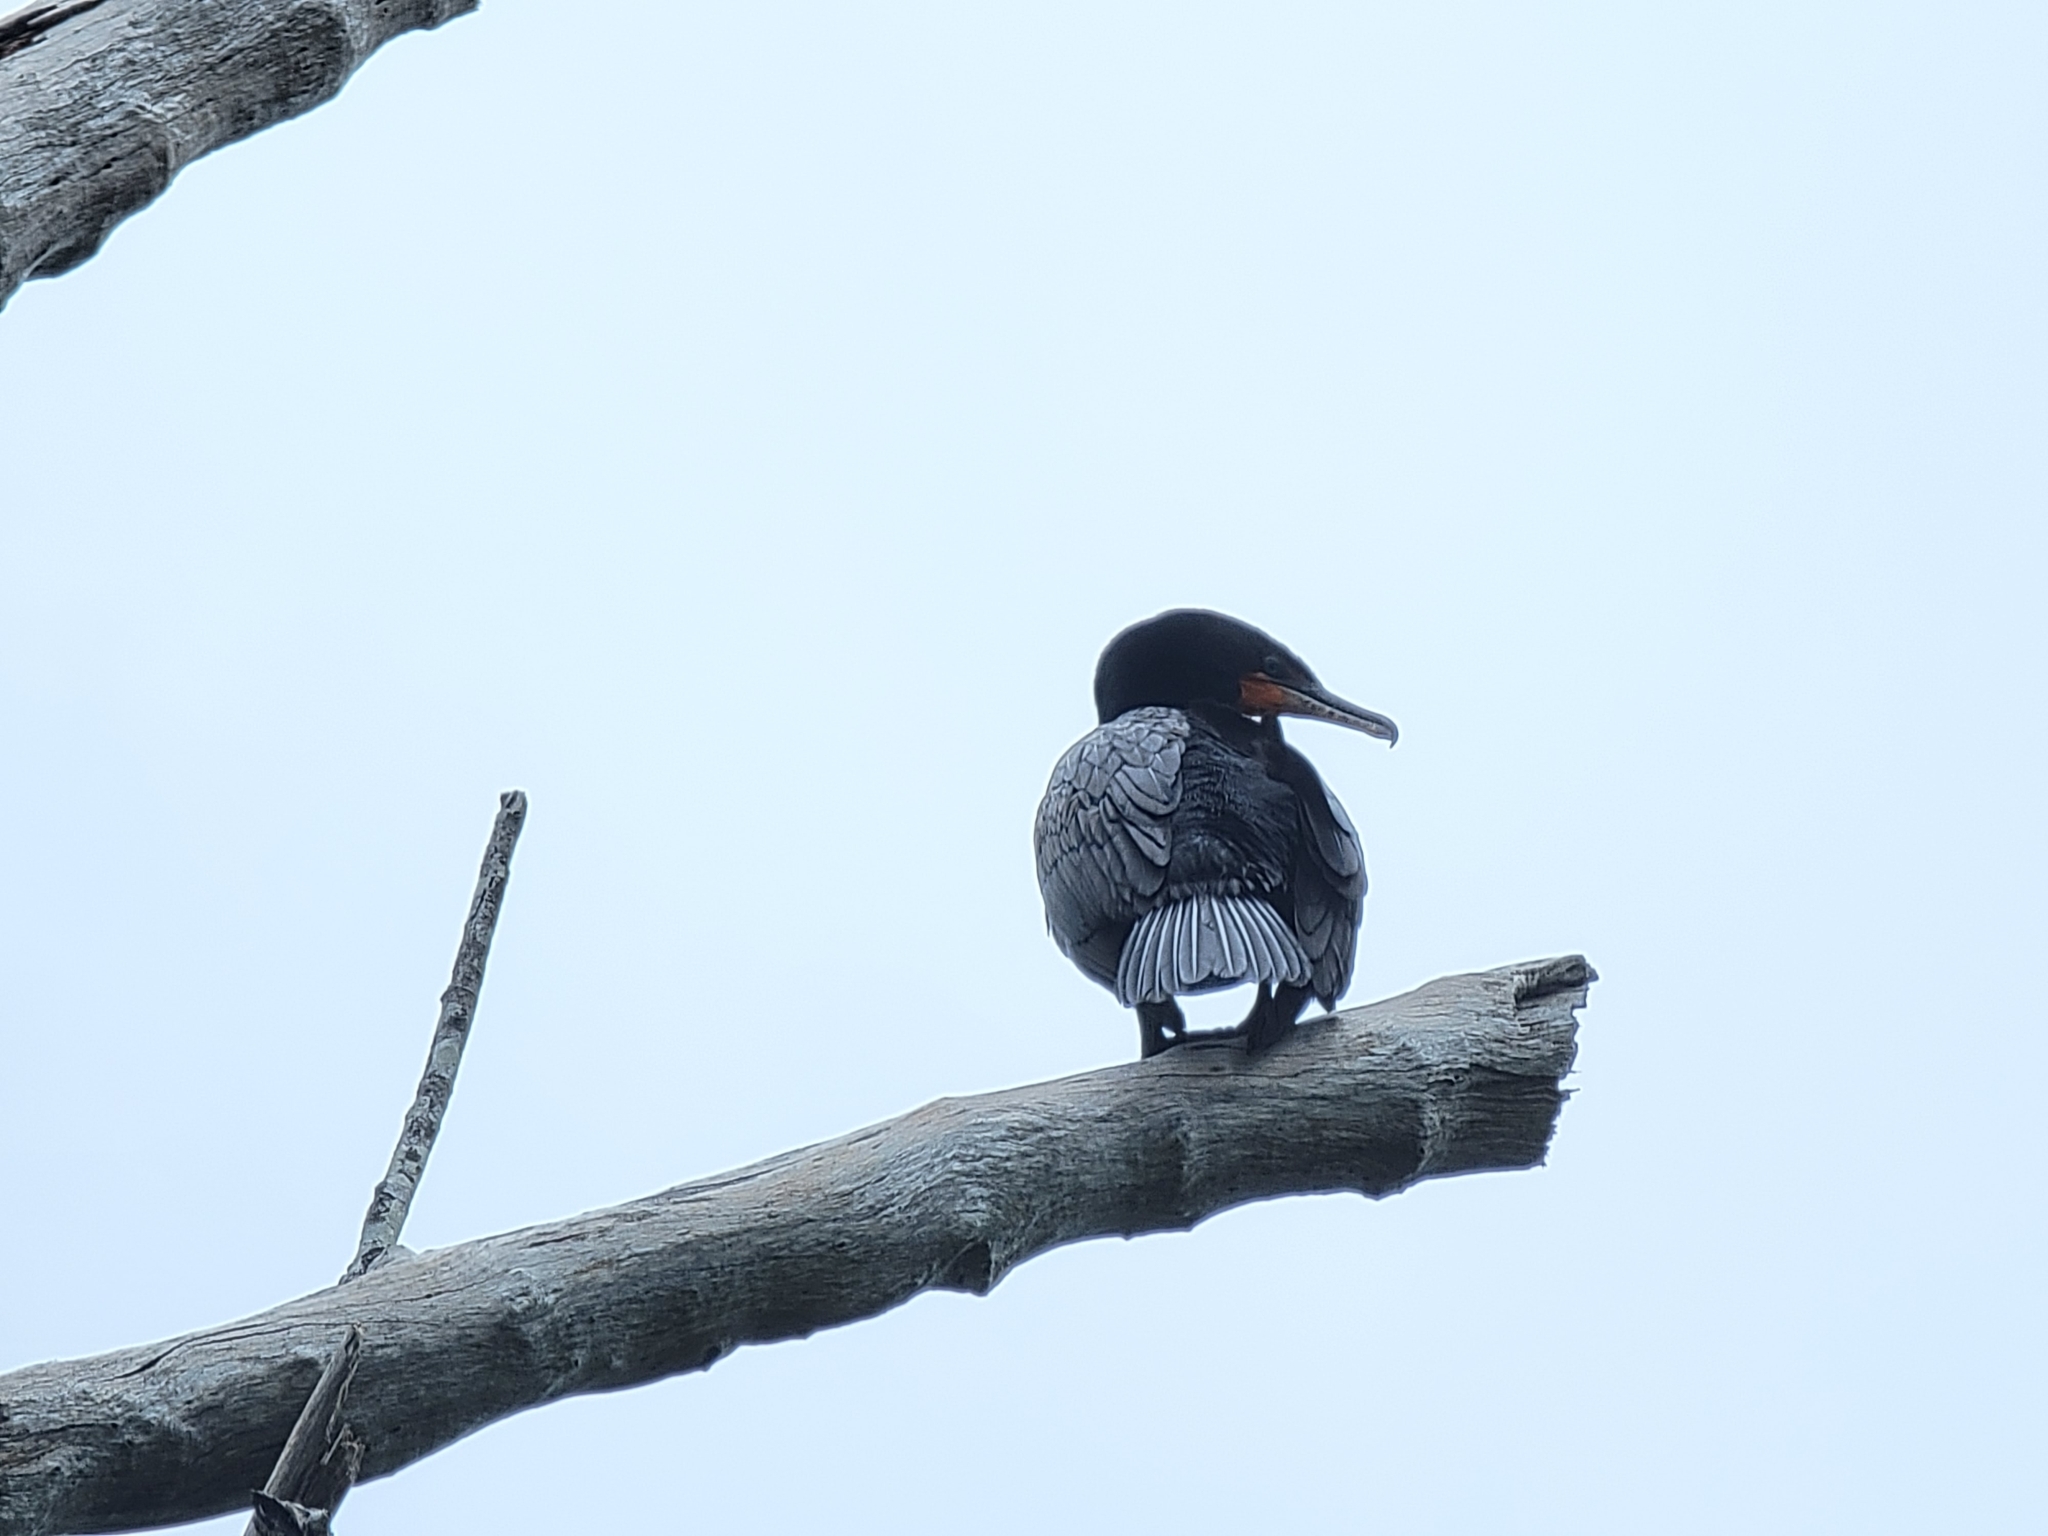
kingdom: Animalia
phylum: Chordata
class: Aves
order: Suliformes
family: Phalacrocoracidae
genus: Phalacrocorax
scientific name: Phalacrocorax auritus
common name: Double-crested cormorant
